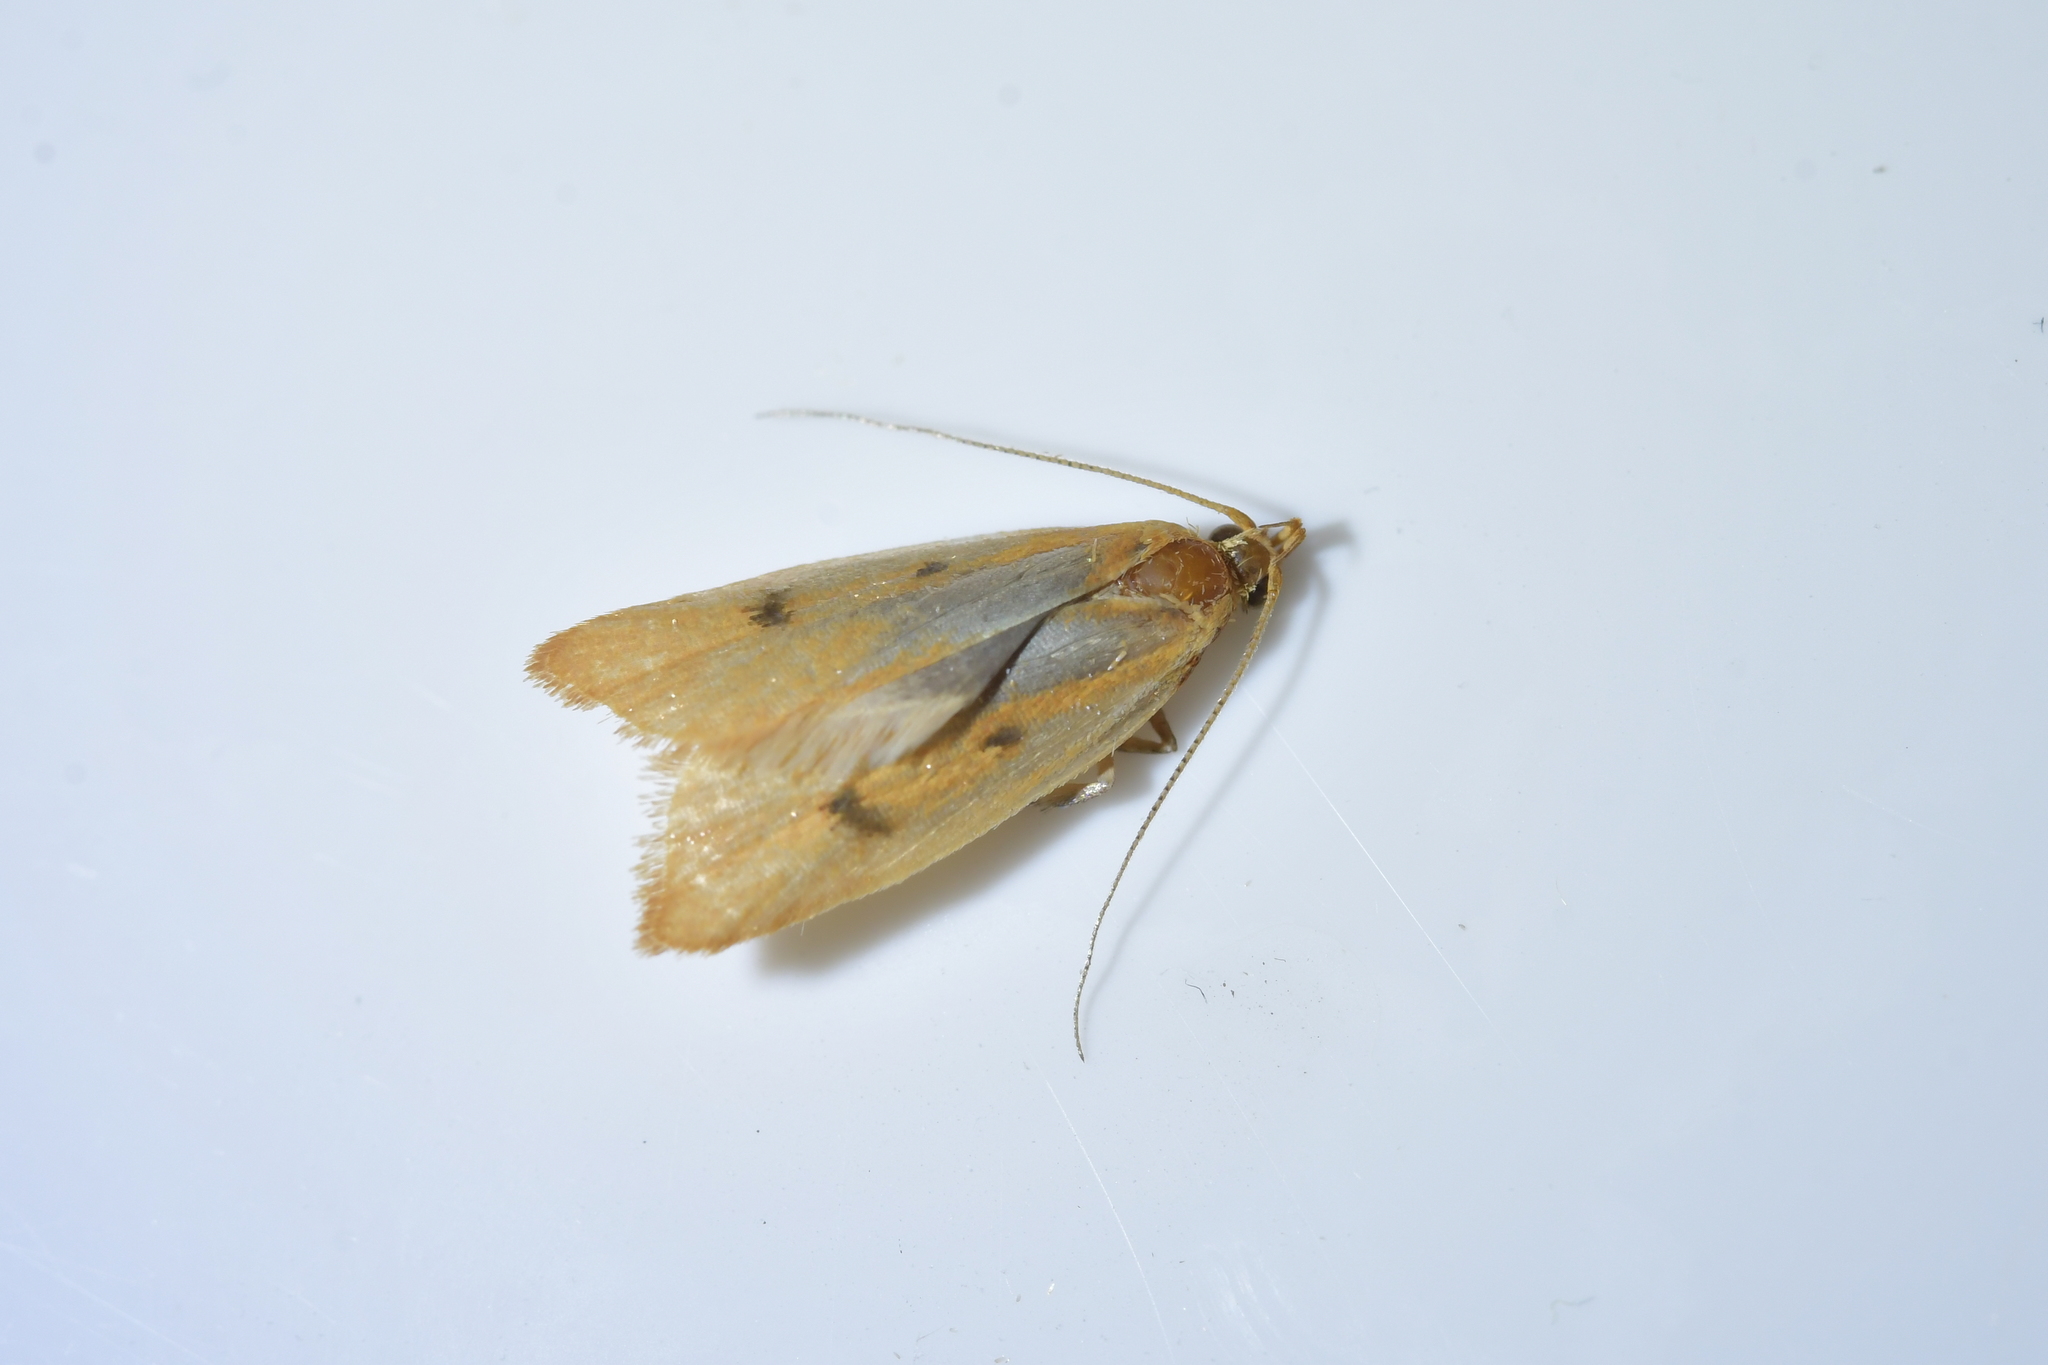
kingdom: Animalia
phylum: Arthropoda
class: Insecta
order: Lepidoptera
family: Oecophoridae
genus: Gymnobathra
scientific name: Gymnobathra sarcoxantha
